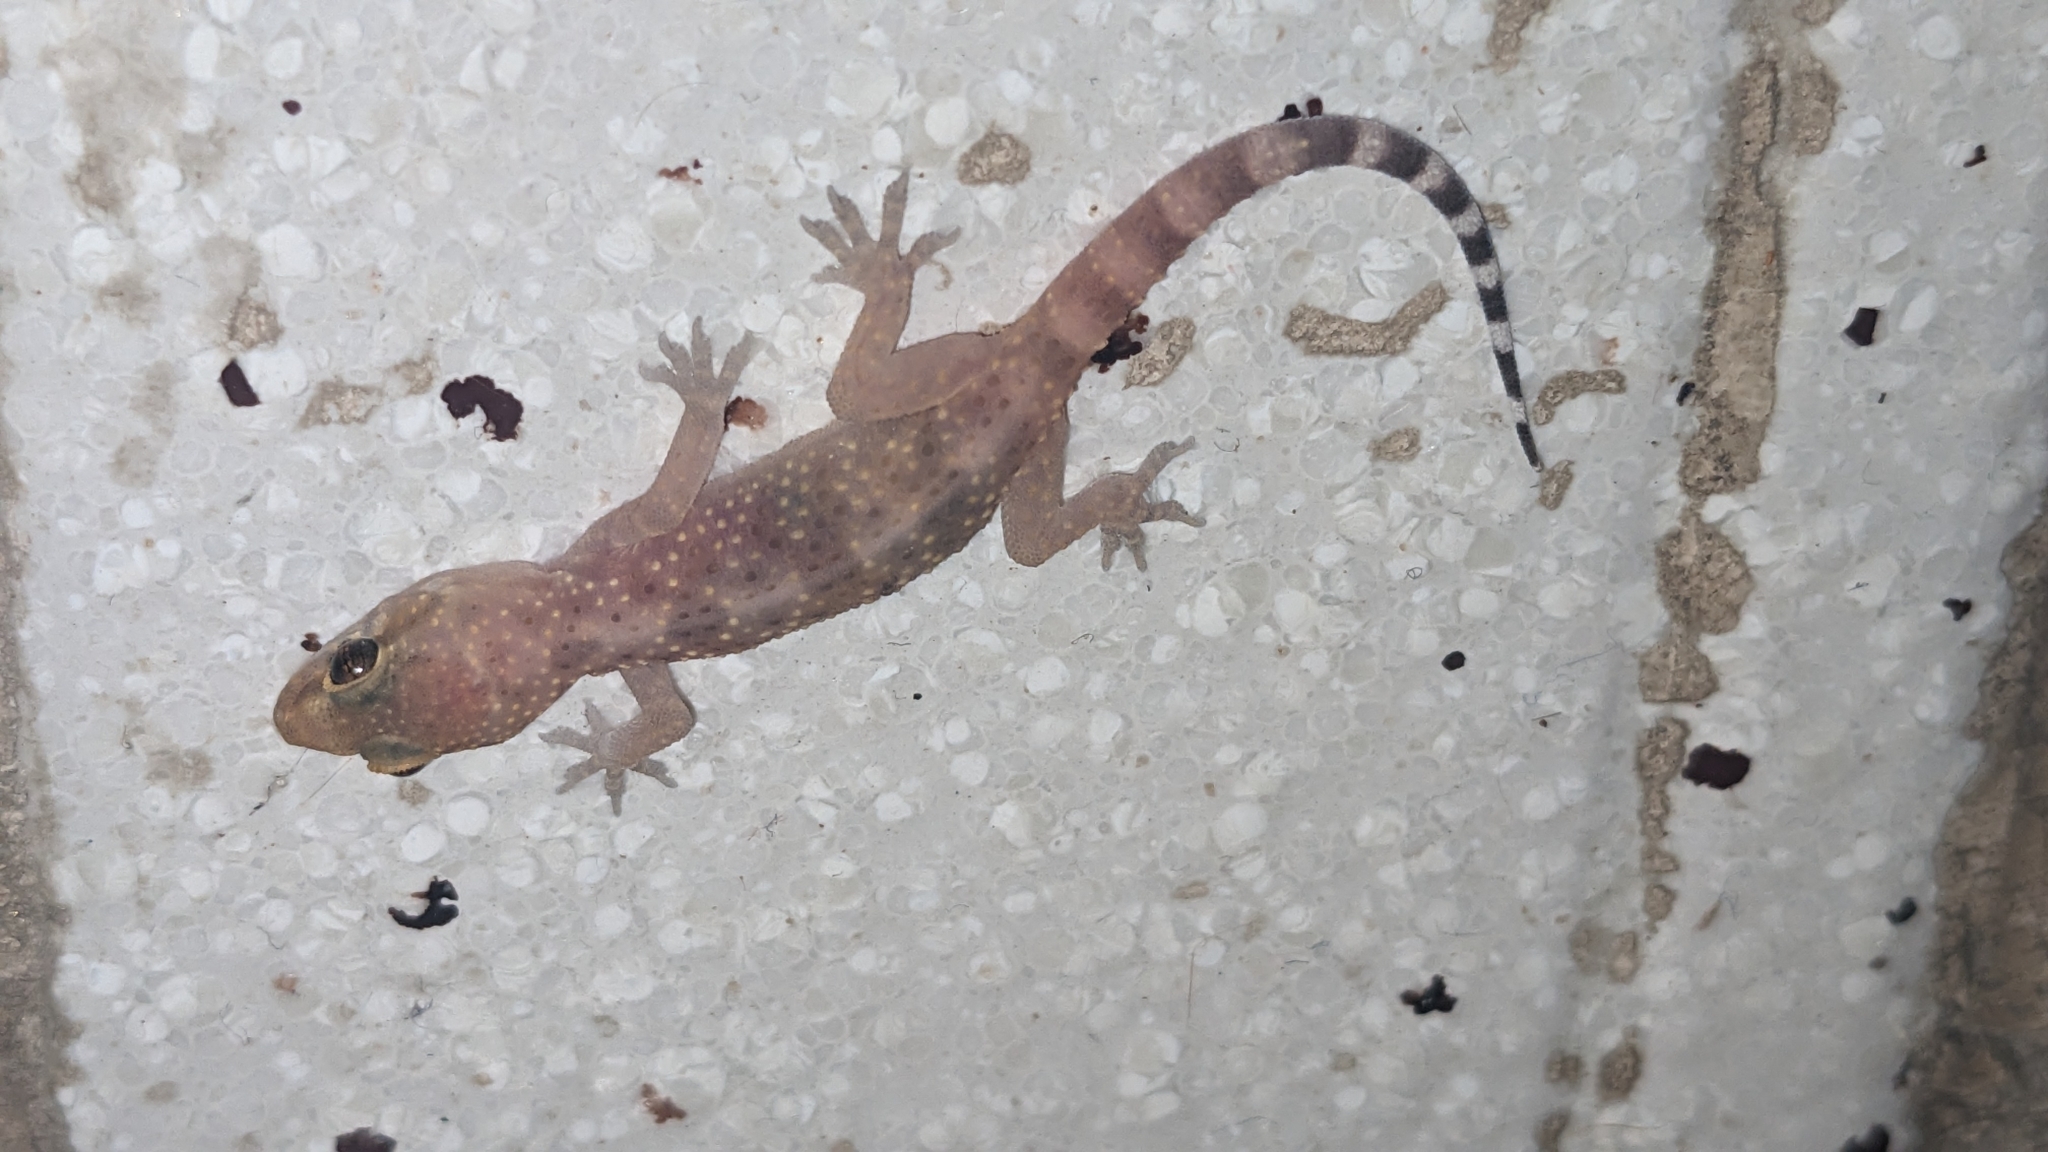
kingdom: Animalia
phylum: Chordata
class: Squamata
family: Gekkonidae
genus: Hemidactylus
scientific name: Hemidactylus turcicus
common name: Turkish gecko
